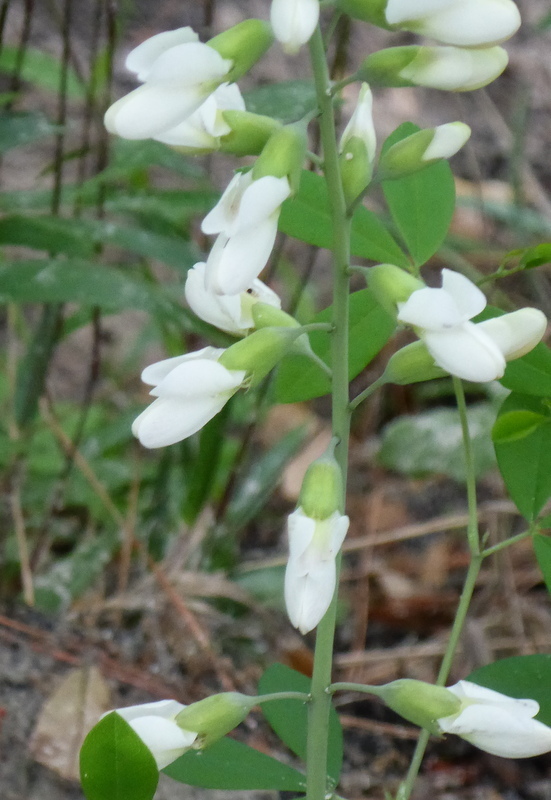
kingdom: Plantae
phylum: Tracheophyta
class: Magnoliopsida
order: Fabales
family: Fabaceae
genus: Baptisia
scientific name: Baptisia alba
